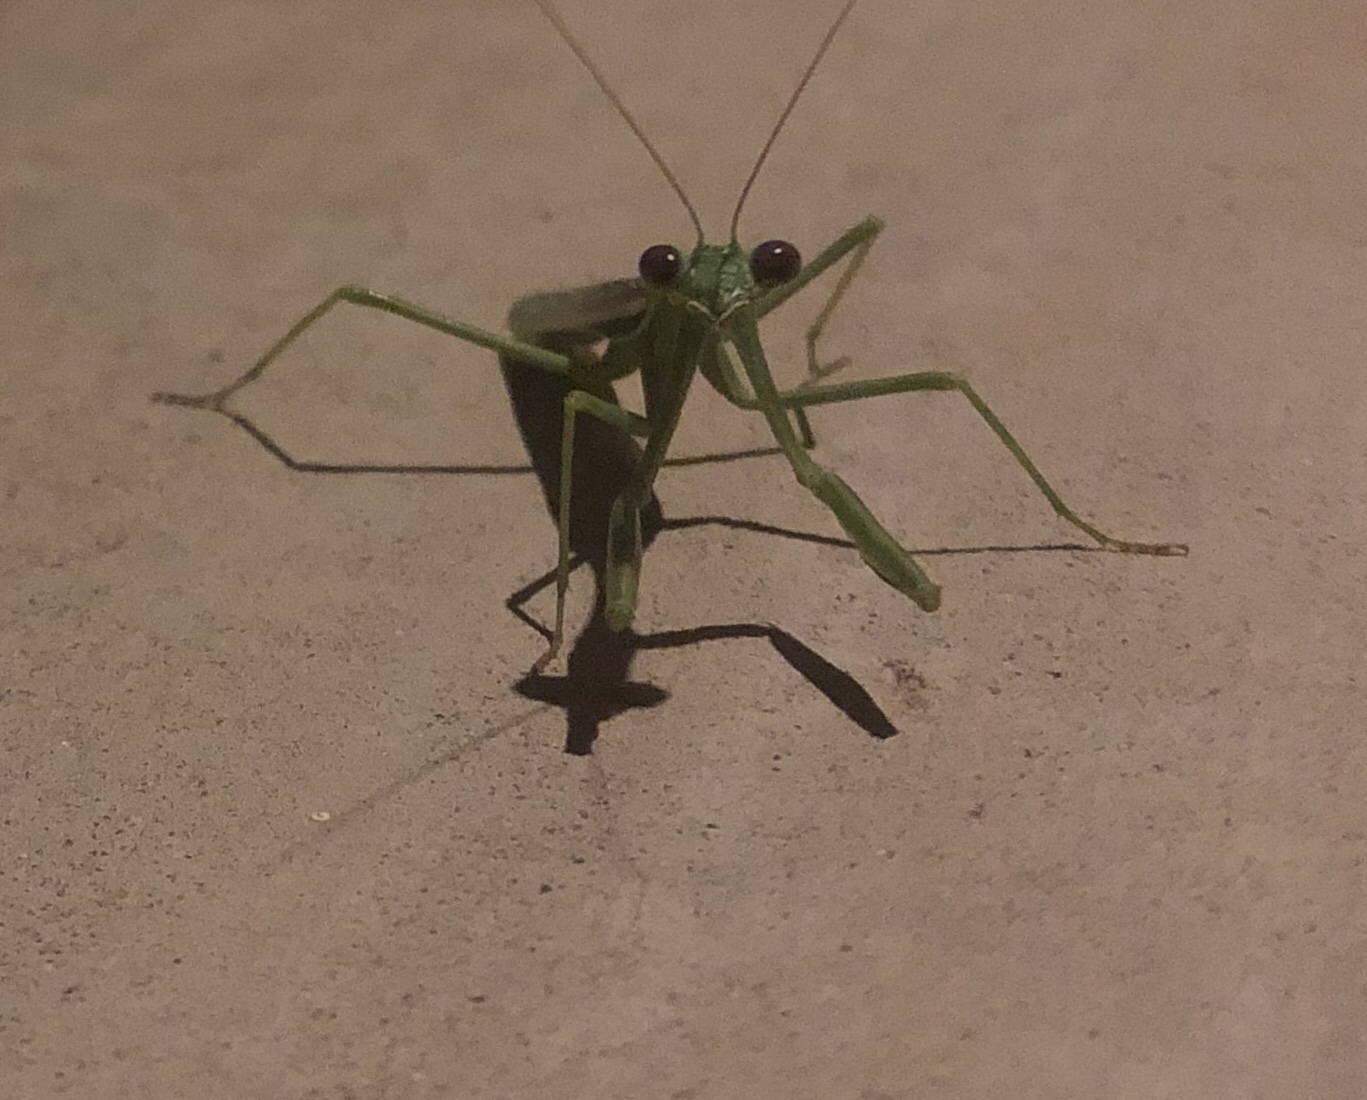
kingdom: Animalia
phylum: Arthropoda
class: Insecta
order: Mantodea
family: Mantidae
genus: Stagmomantis
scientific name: Stagmomantis limbata
